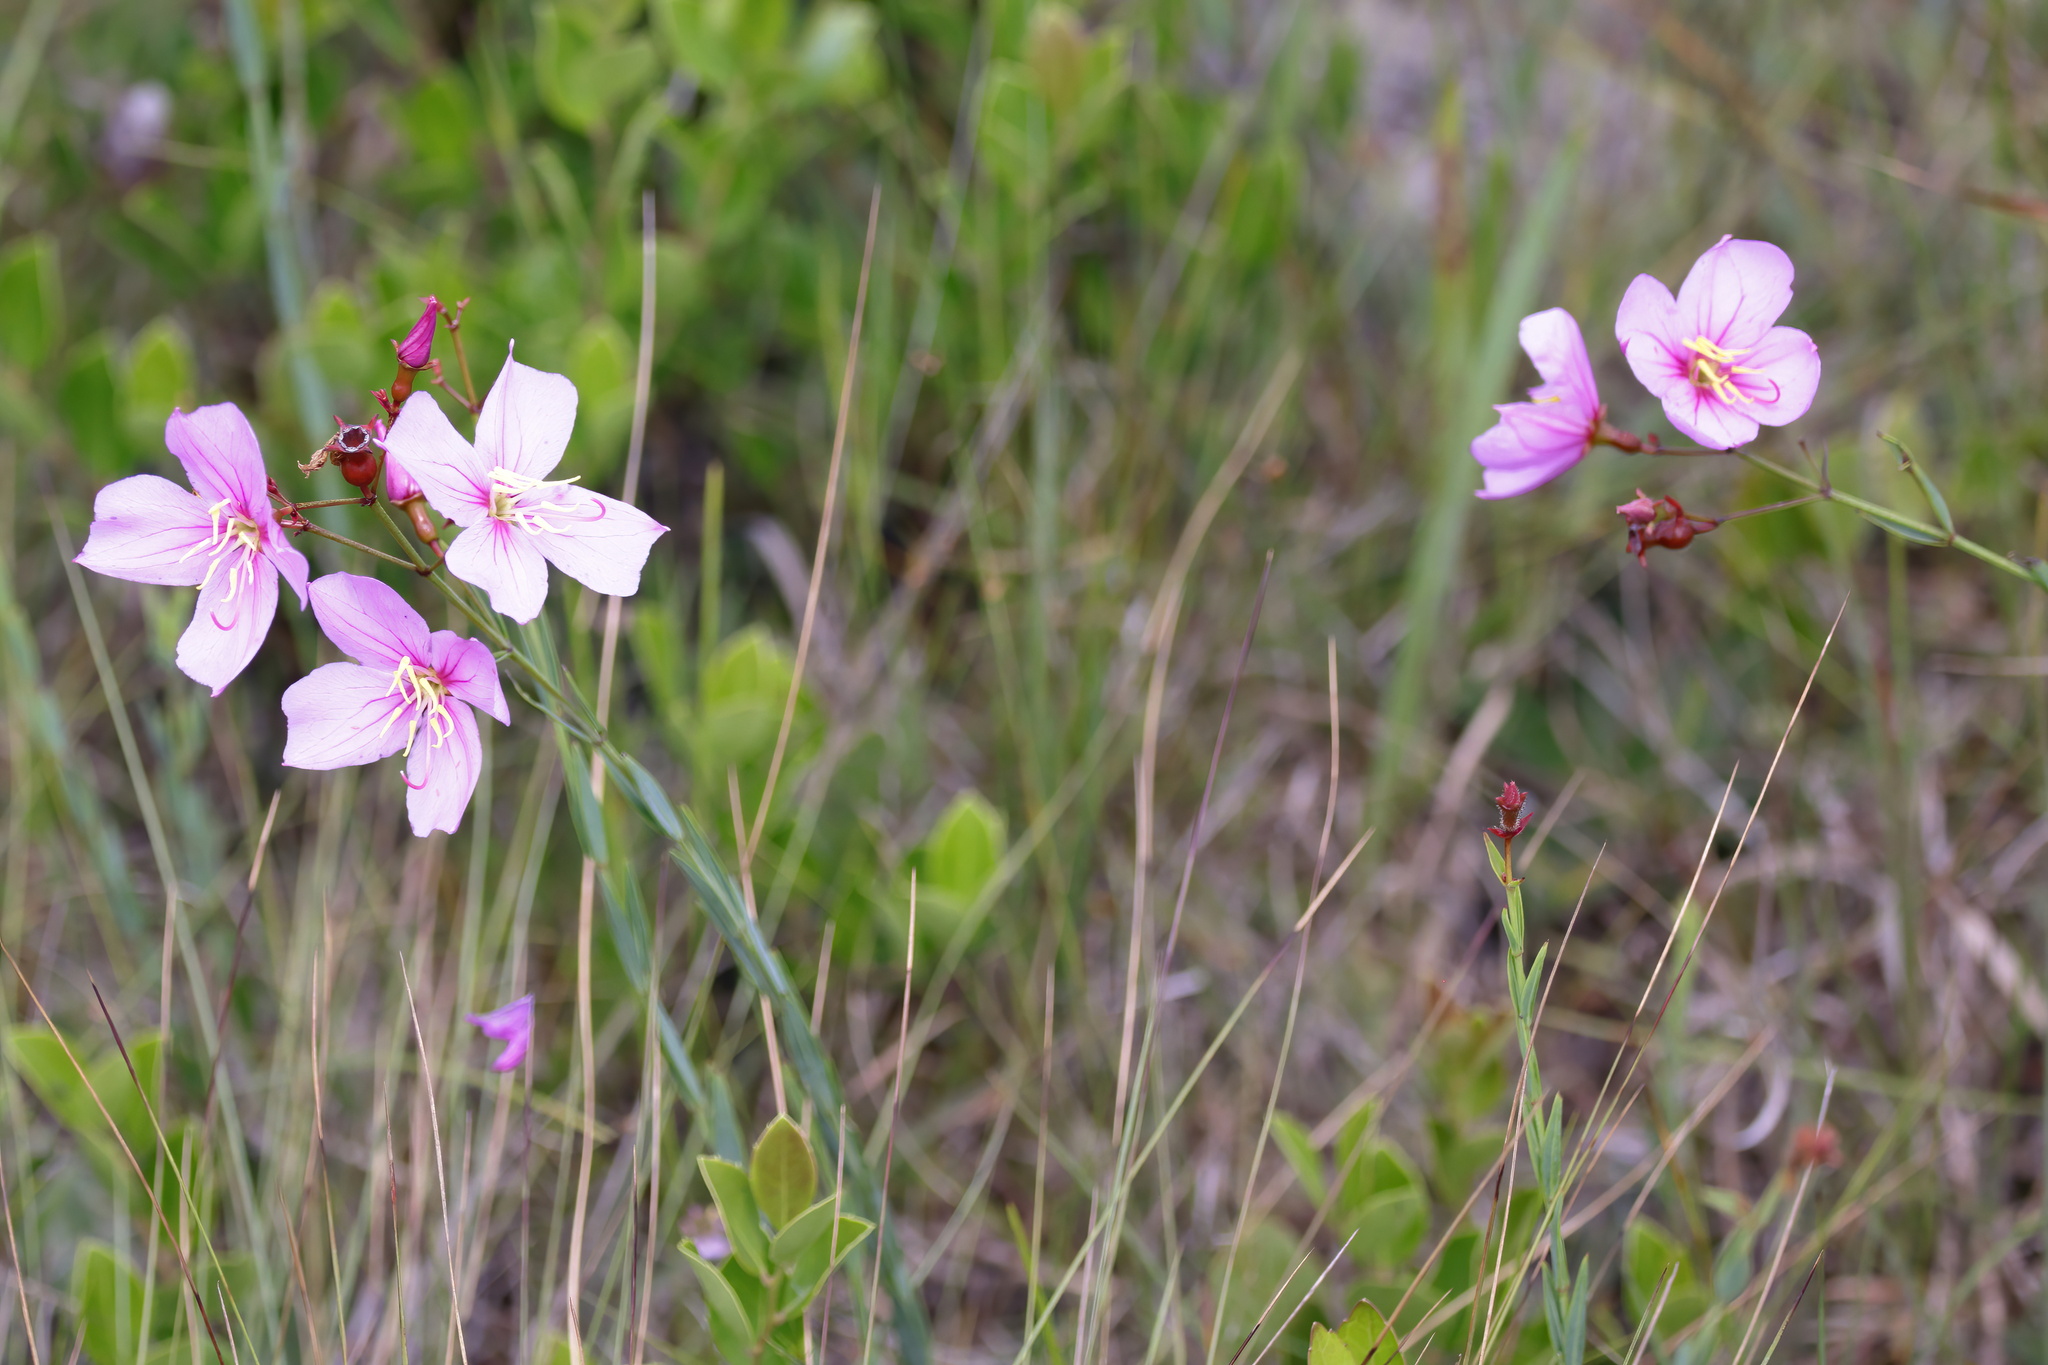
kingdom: Plantae
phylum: Tracheophyta
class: Magnoliopsida
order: Myrtales
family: Melastomataceae
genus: Rhexia
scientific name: Rhexia alifanus
